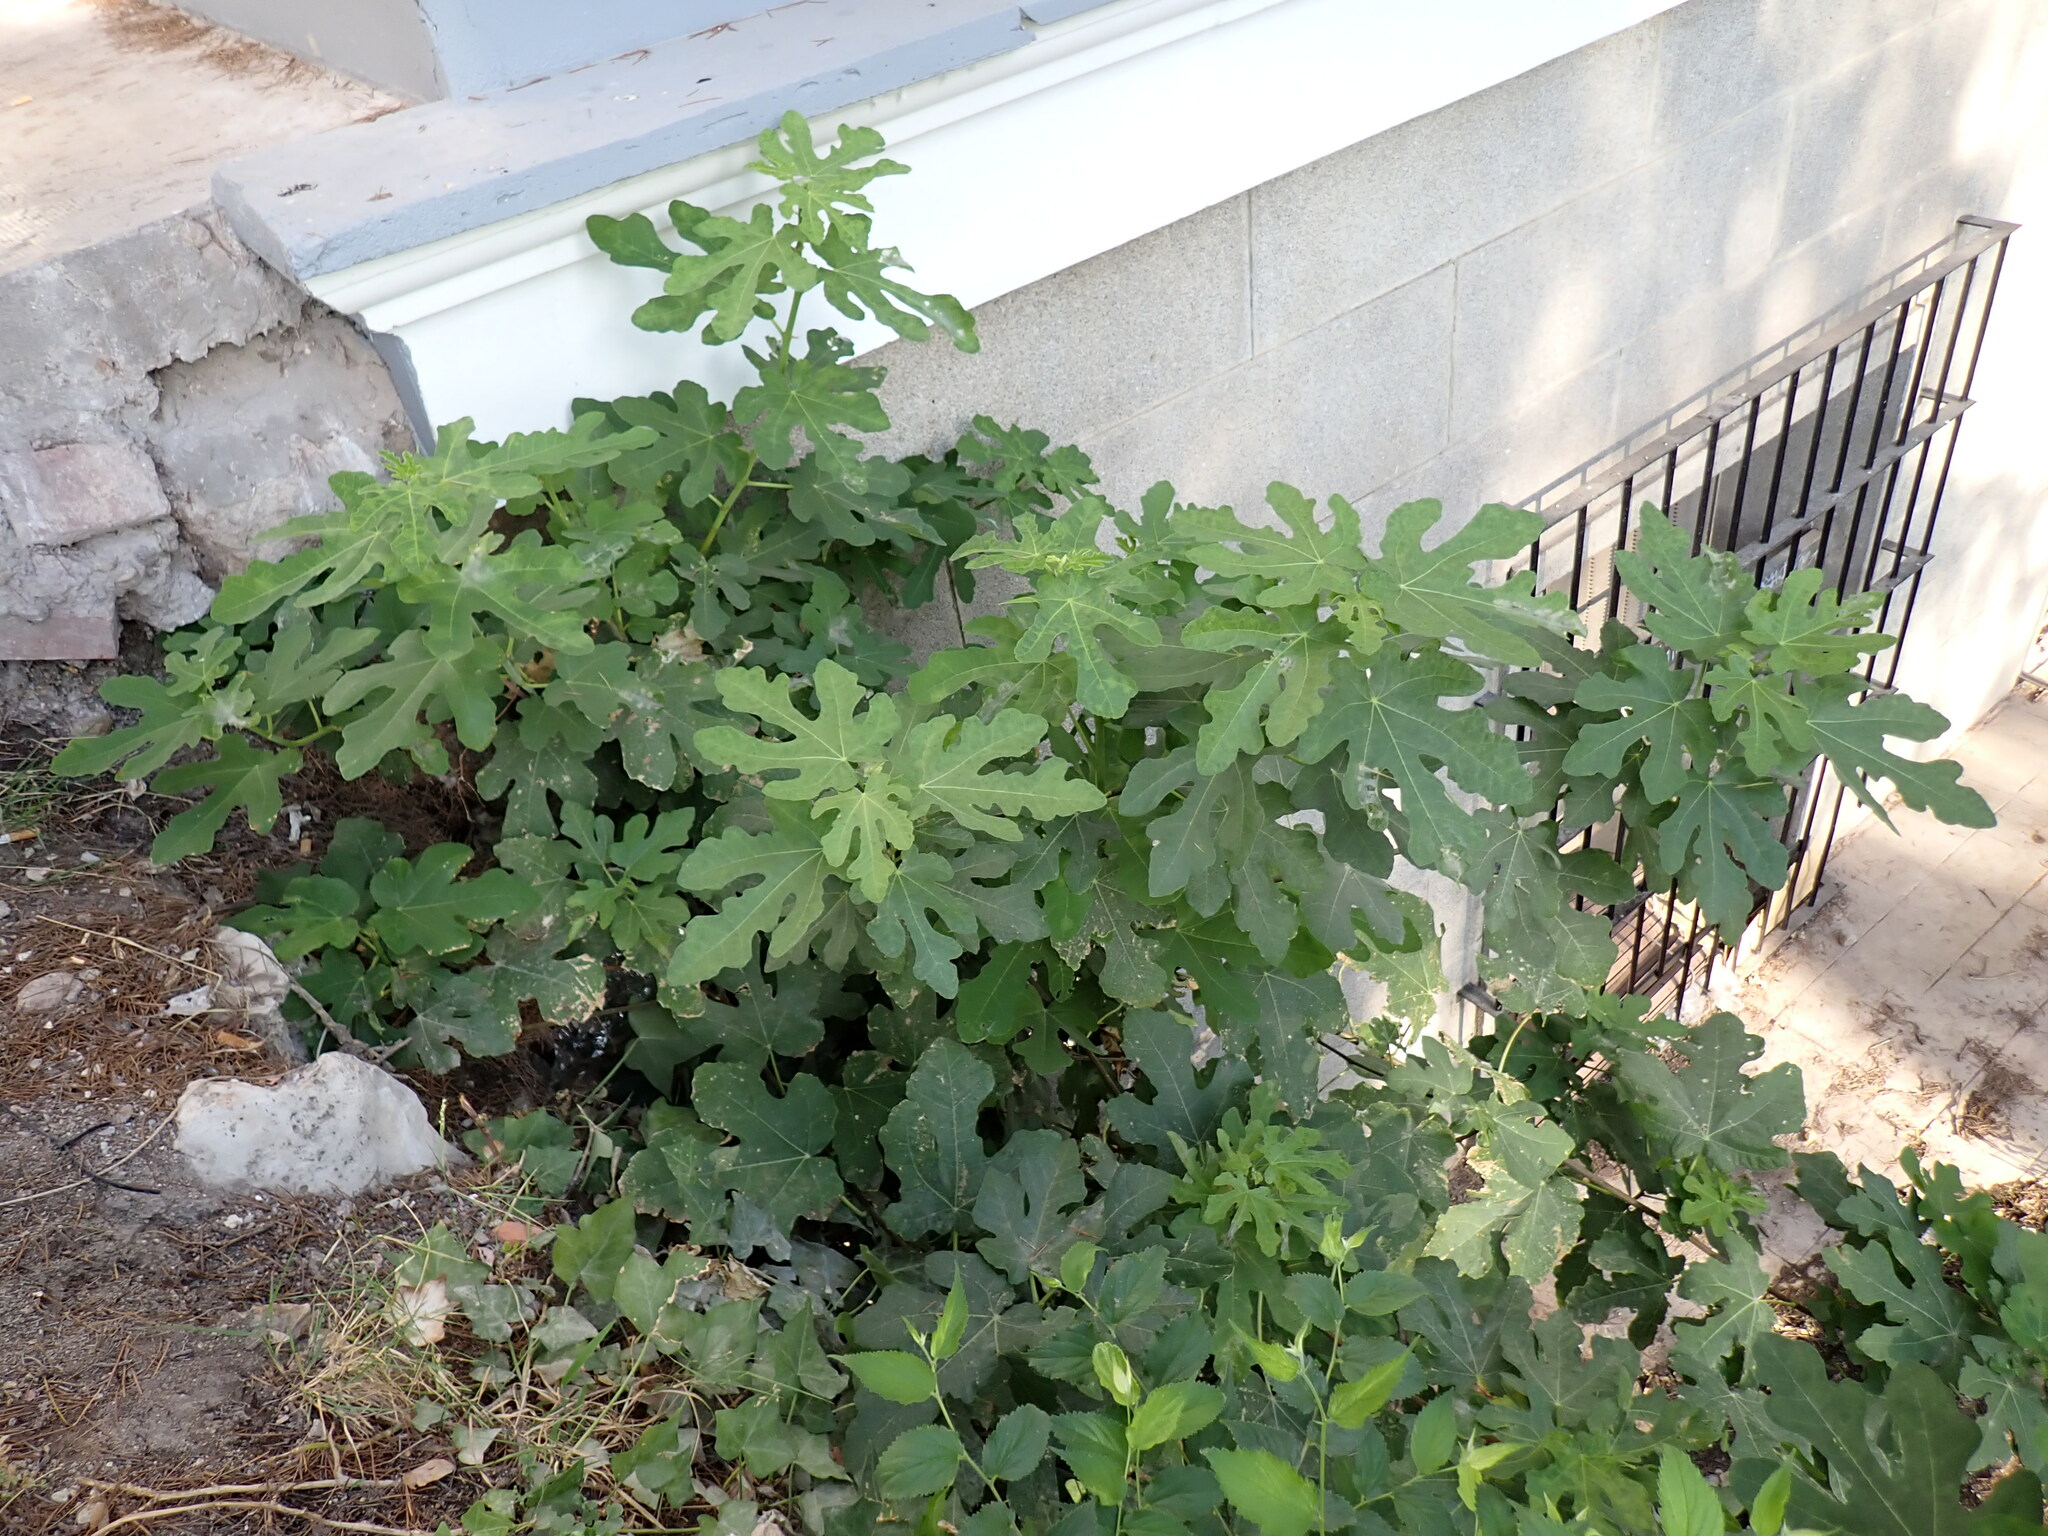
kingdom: Plantae
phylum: Tracheophyta
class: Magnoliopsida
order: Rosales
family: Moraceae
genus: Ficus
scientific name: Ficus carica
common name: Fig
